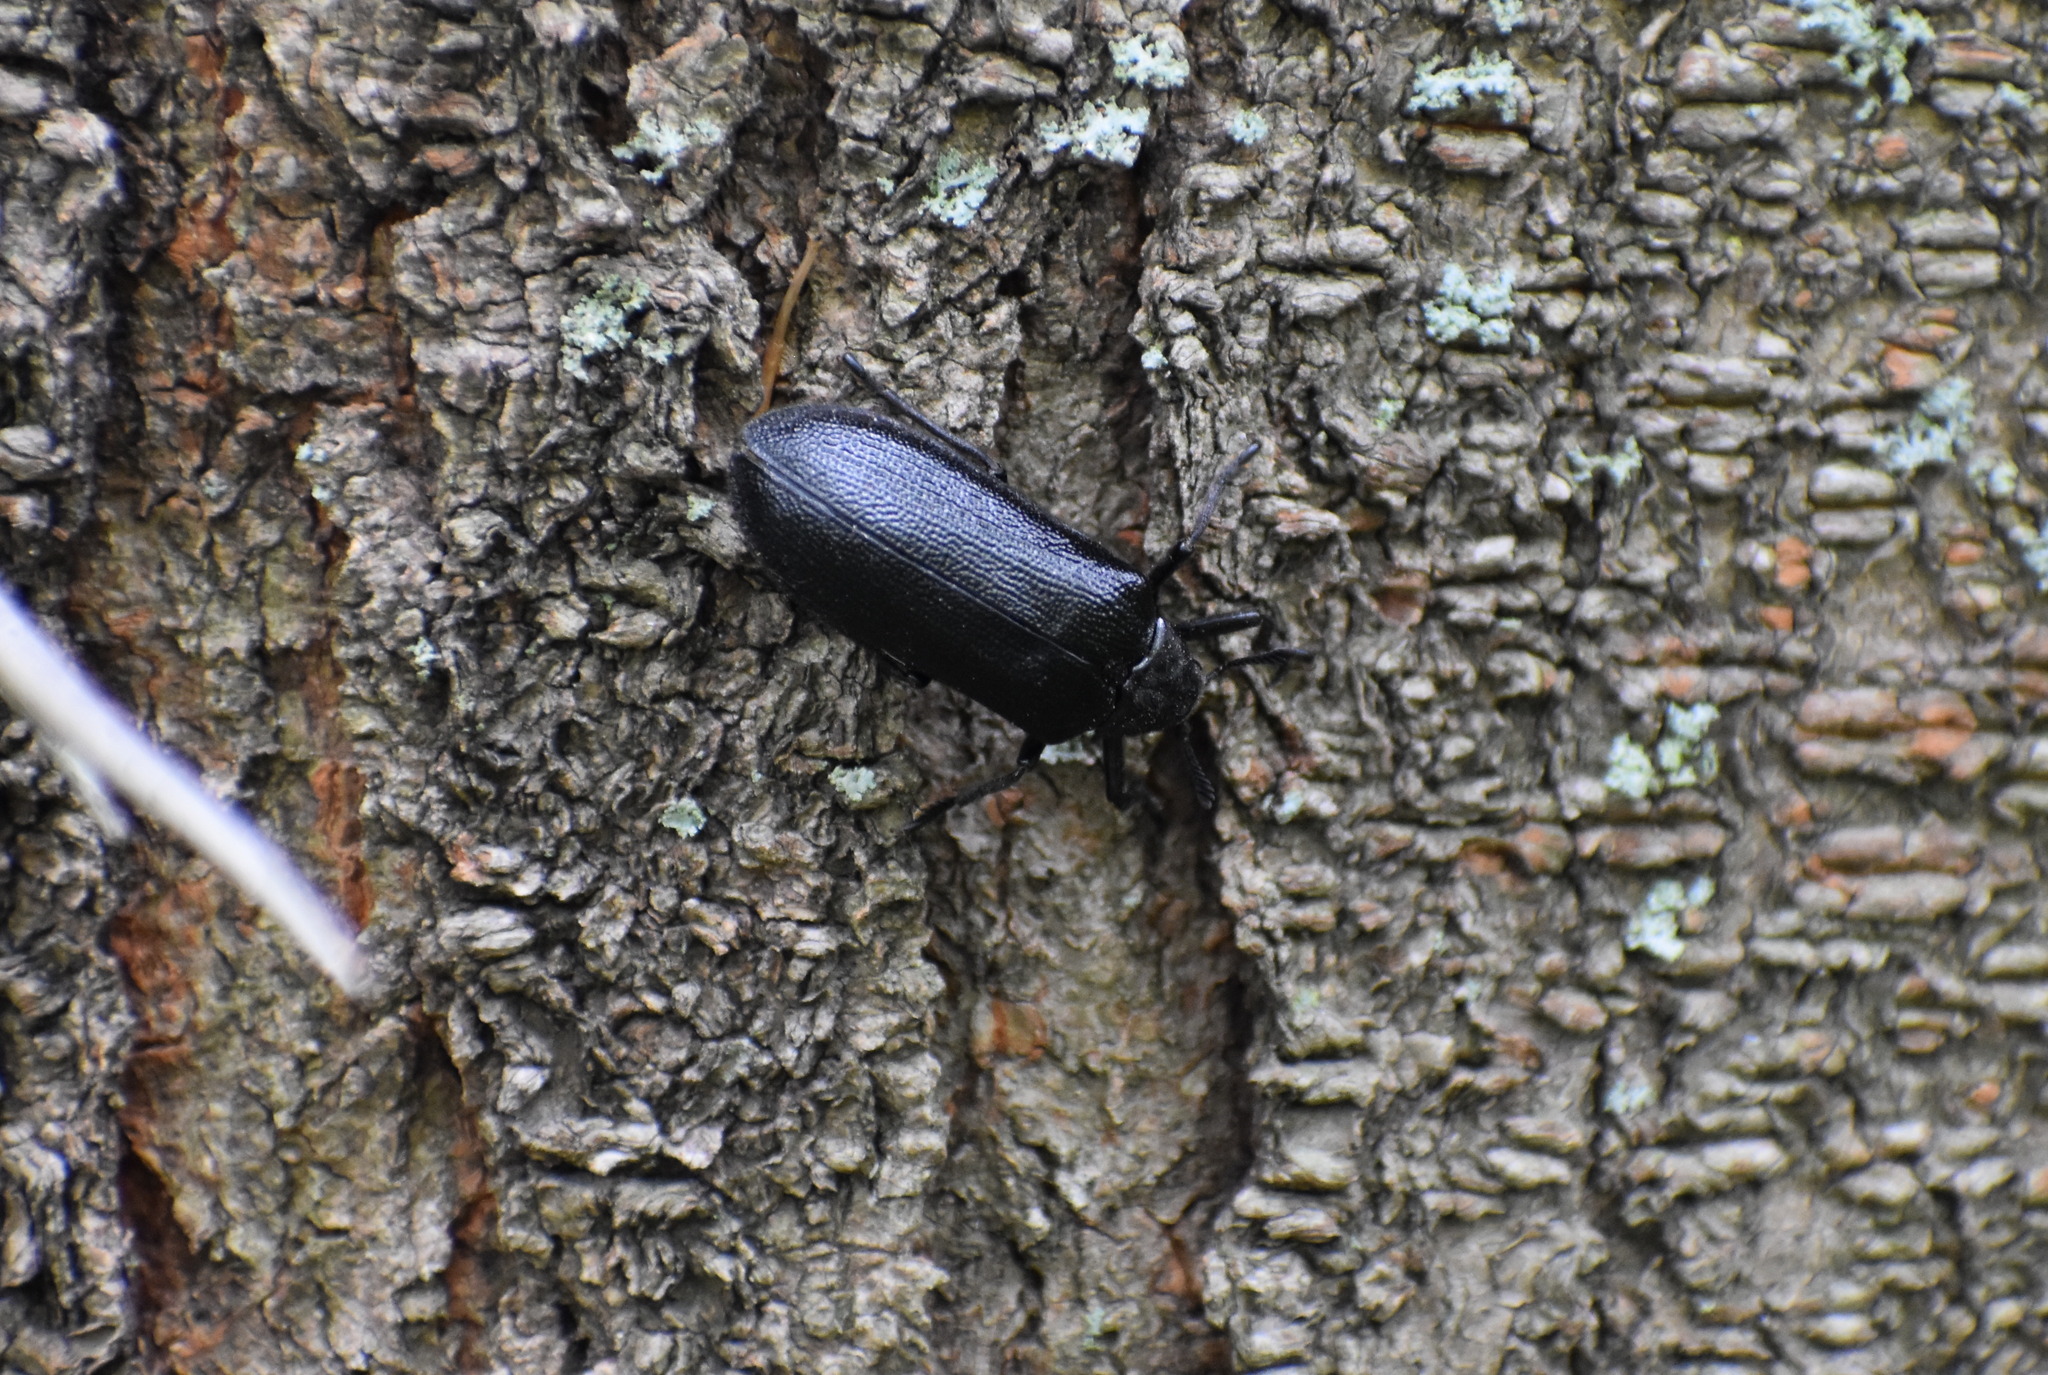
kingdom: Animalia
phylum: Arthropoda
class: Insecta
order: Coleoptera
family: Rhipiceridae
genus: Sandalus
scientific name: Sandalus niger
